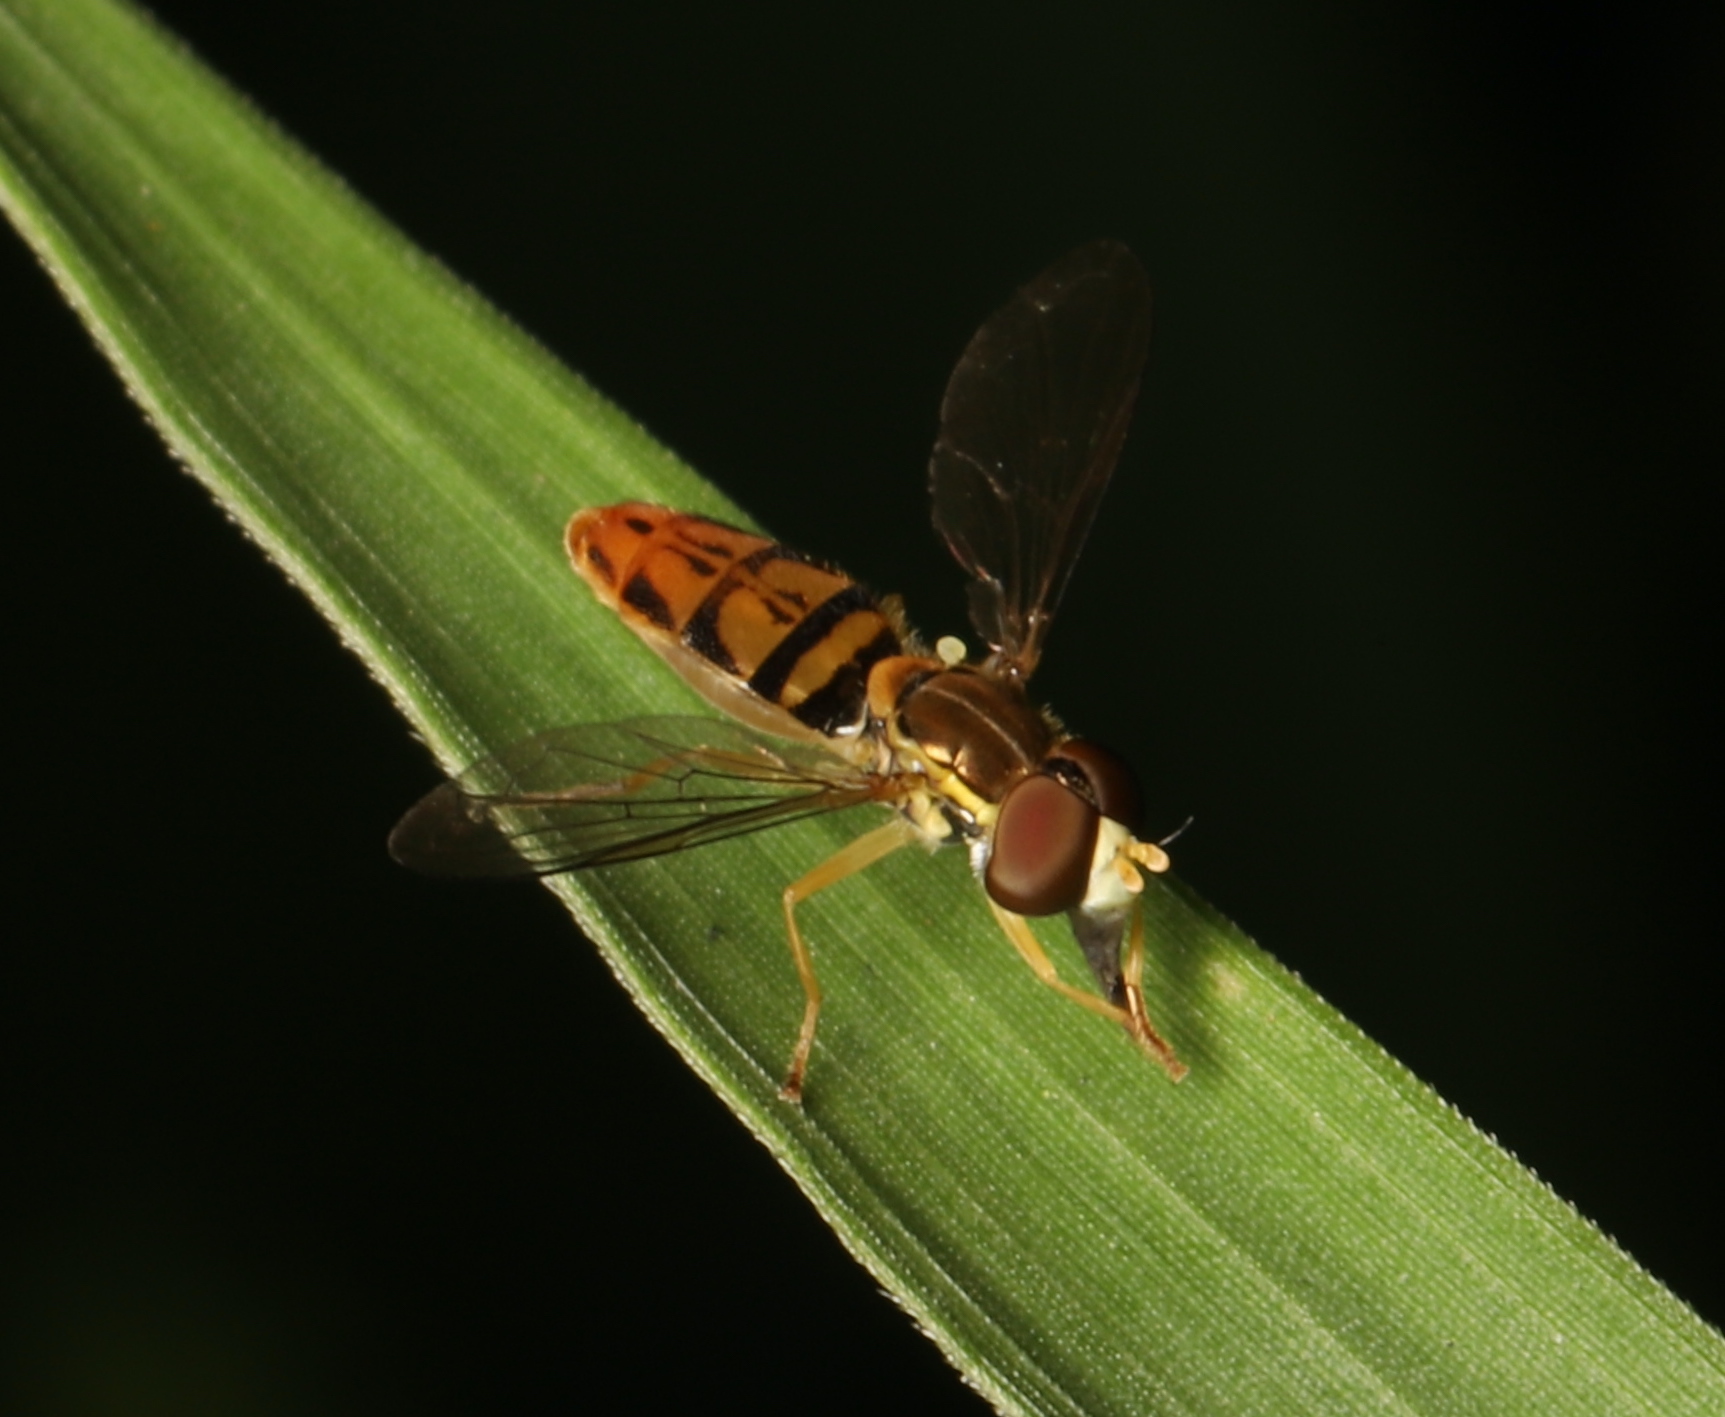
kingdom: Animalia
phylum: Arthropoda
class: Insecta
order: Diptera
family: Syrphidae
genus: Toxomerus
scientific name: Toxomerus marginatus
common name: Syrphid fly
